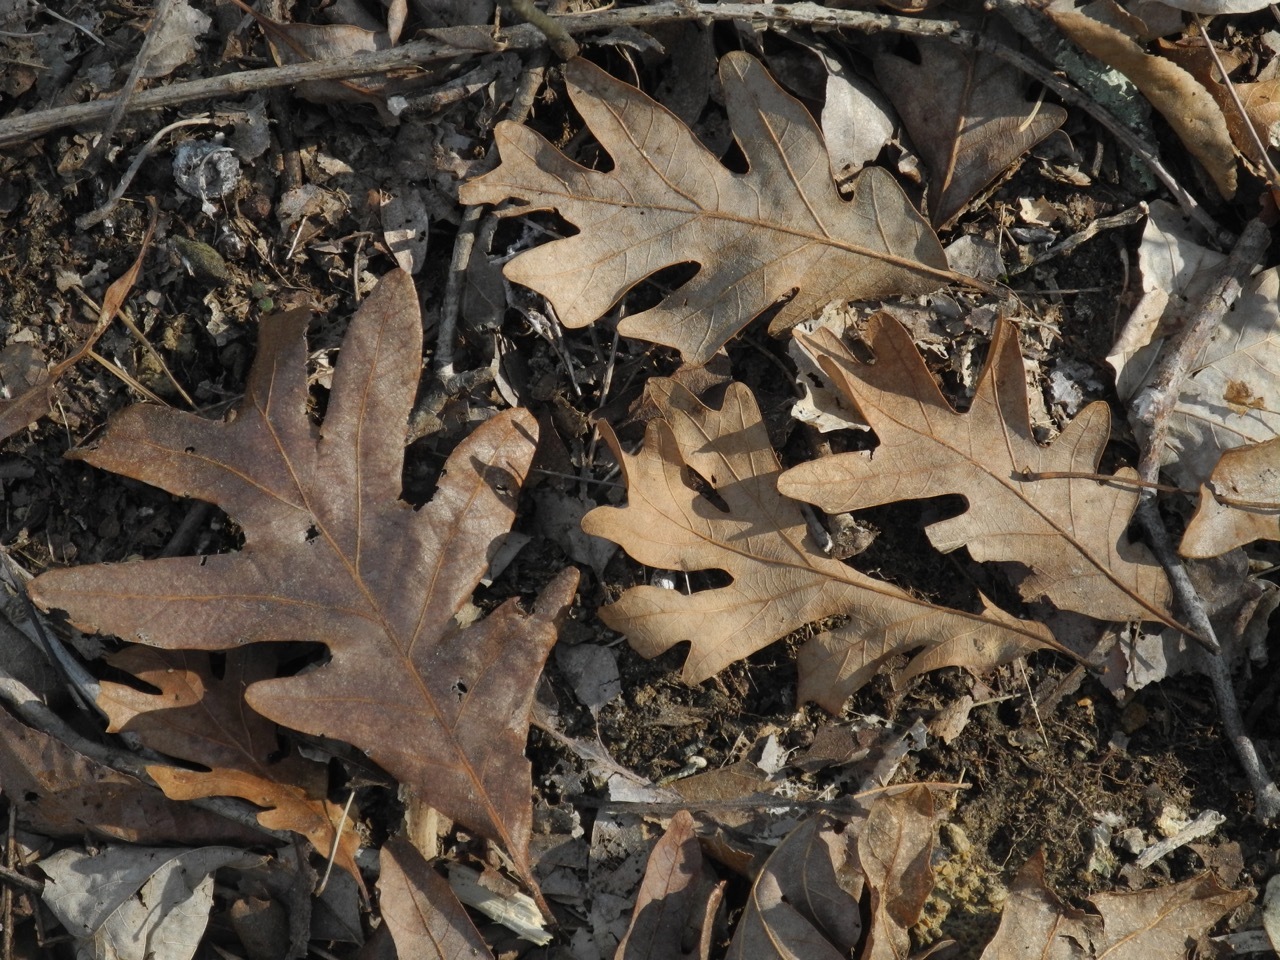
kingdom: Plantae
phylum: Tracheophyta
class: Magnoliopsida
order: Fagales
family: Fagaceae
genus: Quercus
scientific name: Quercus alba
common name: White oak
